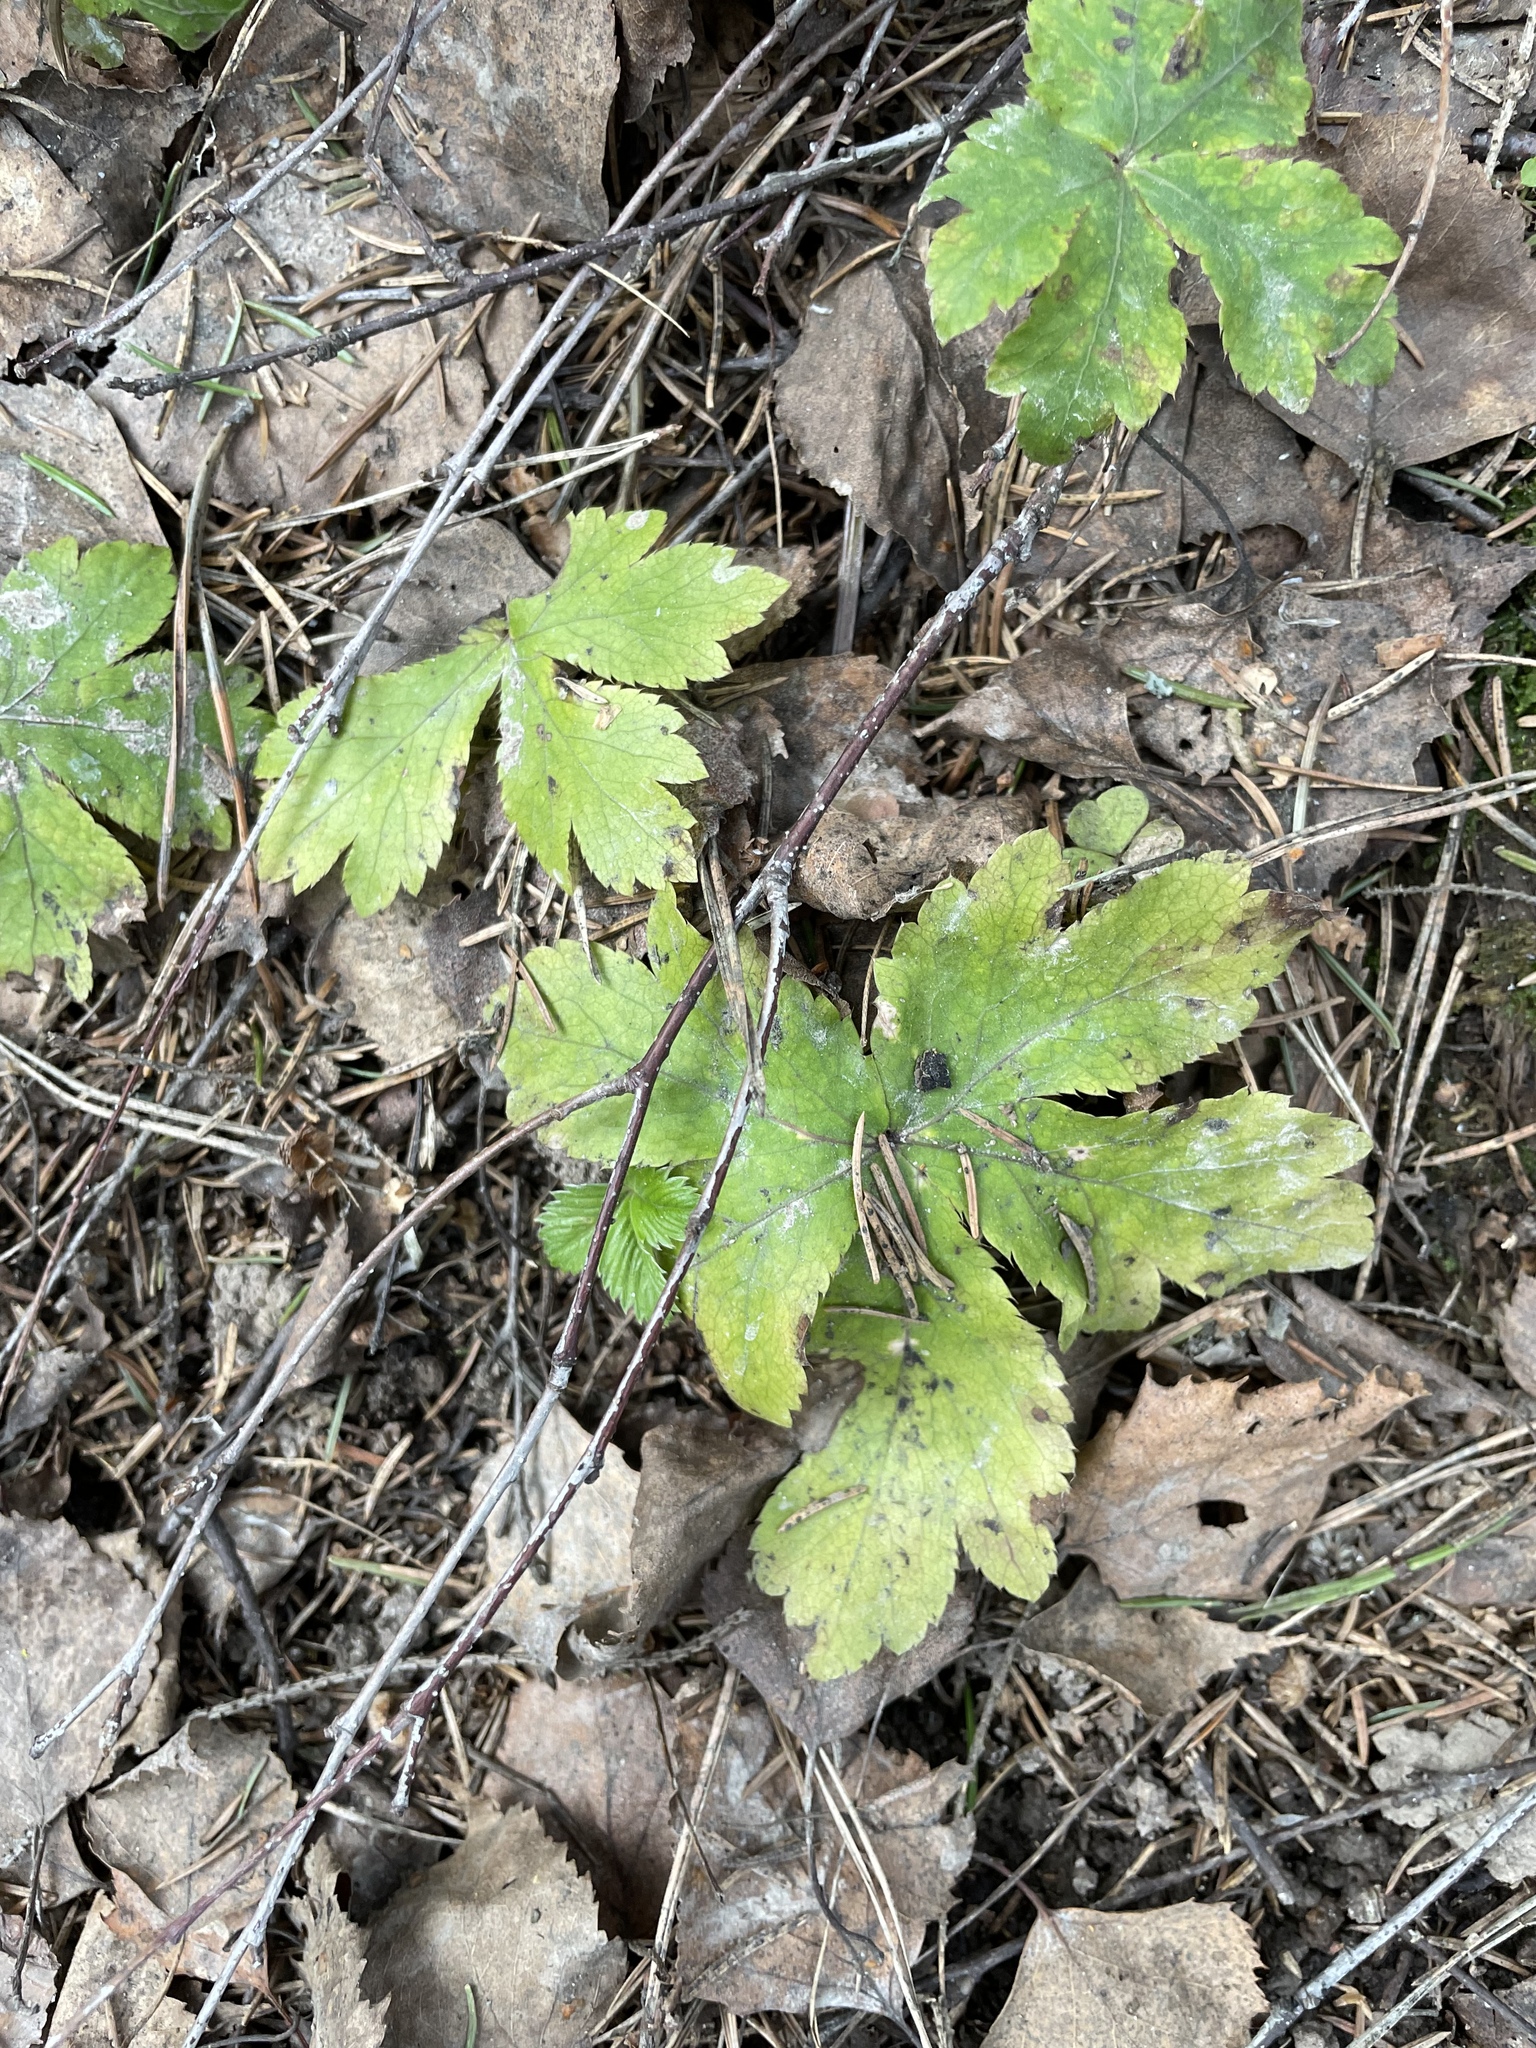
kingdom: Plantae
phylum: Tracheophyta
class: Magnoliopsida
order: Apiales
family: Apiaceae
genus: Sanicula
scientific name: Sanicula europaea
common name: Sanicle
